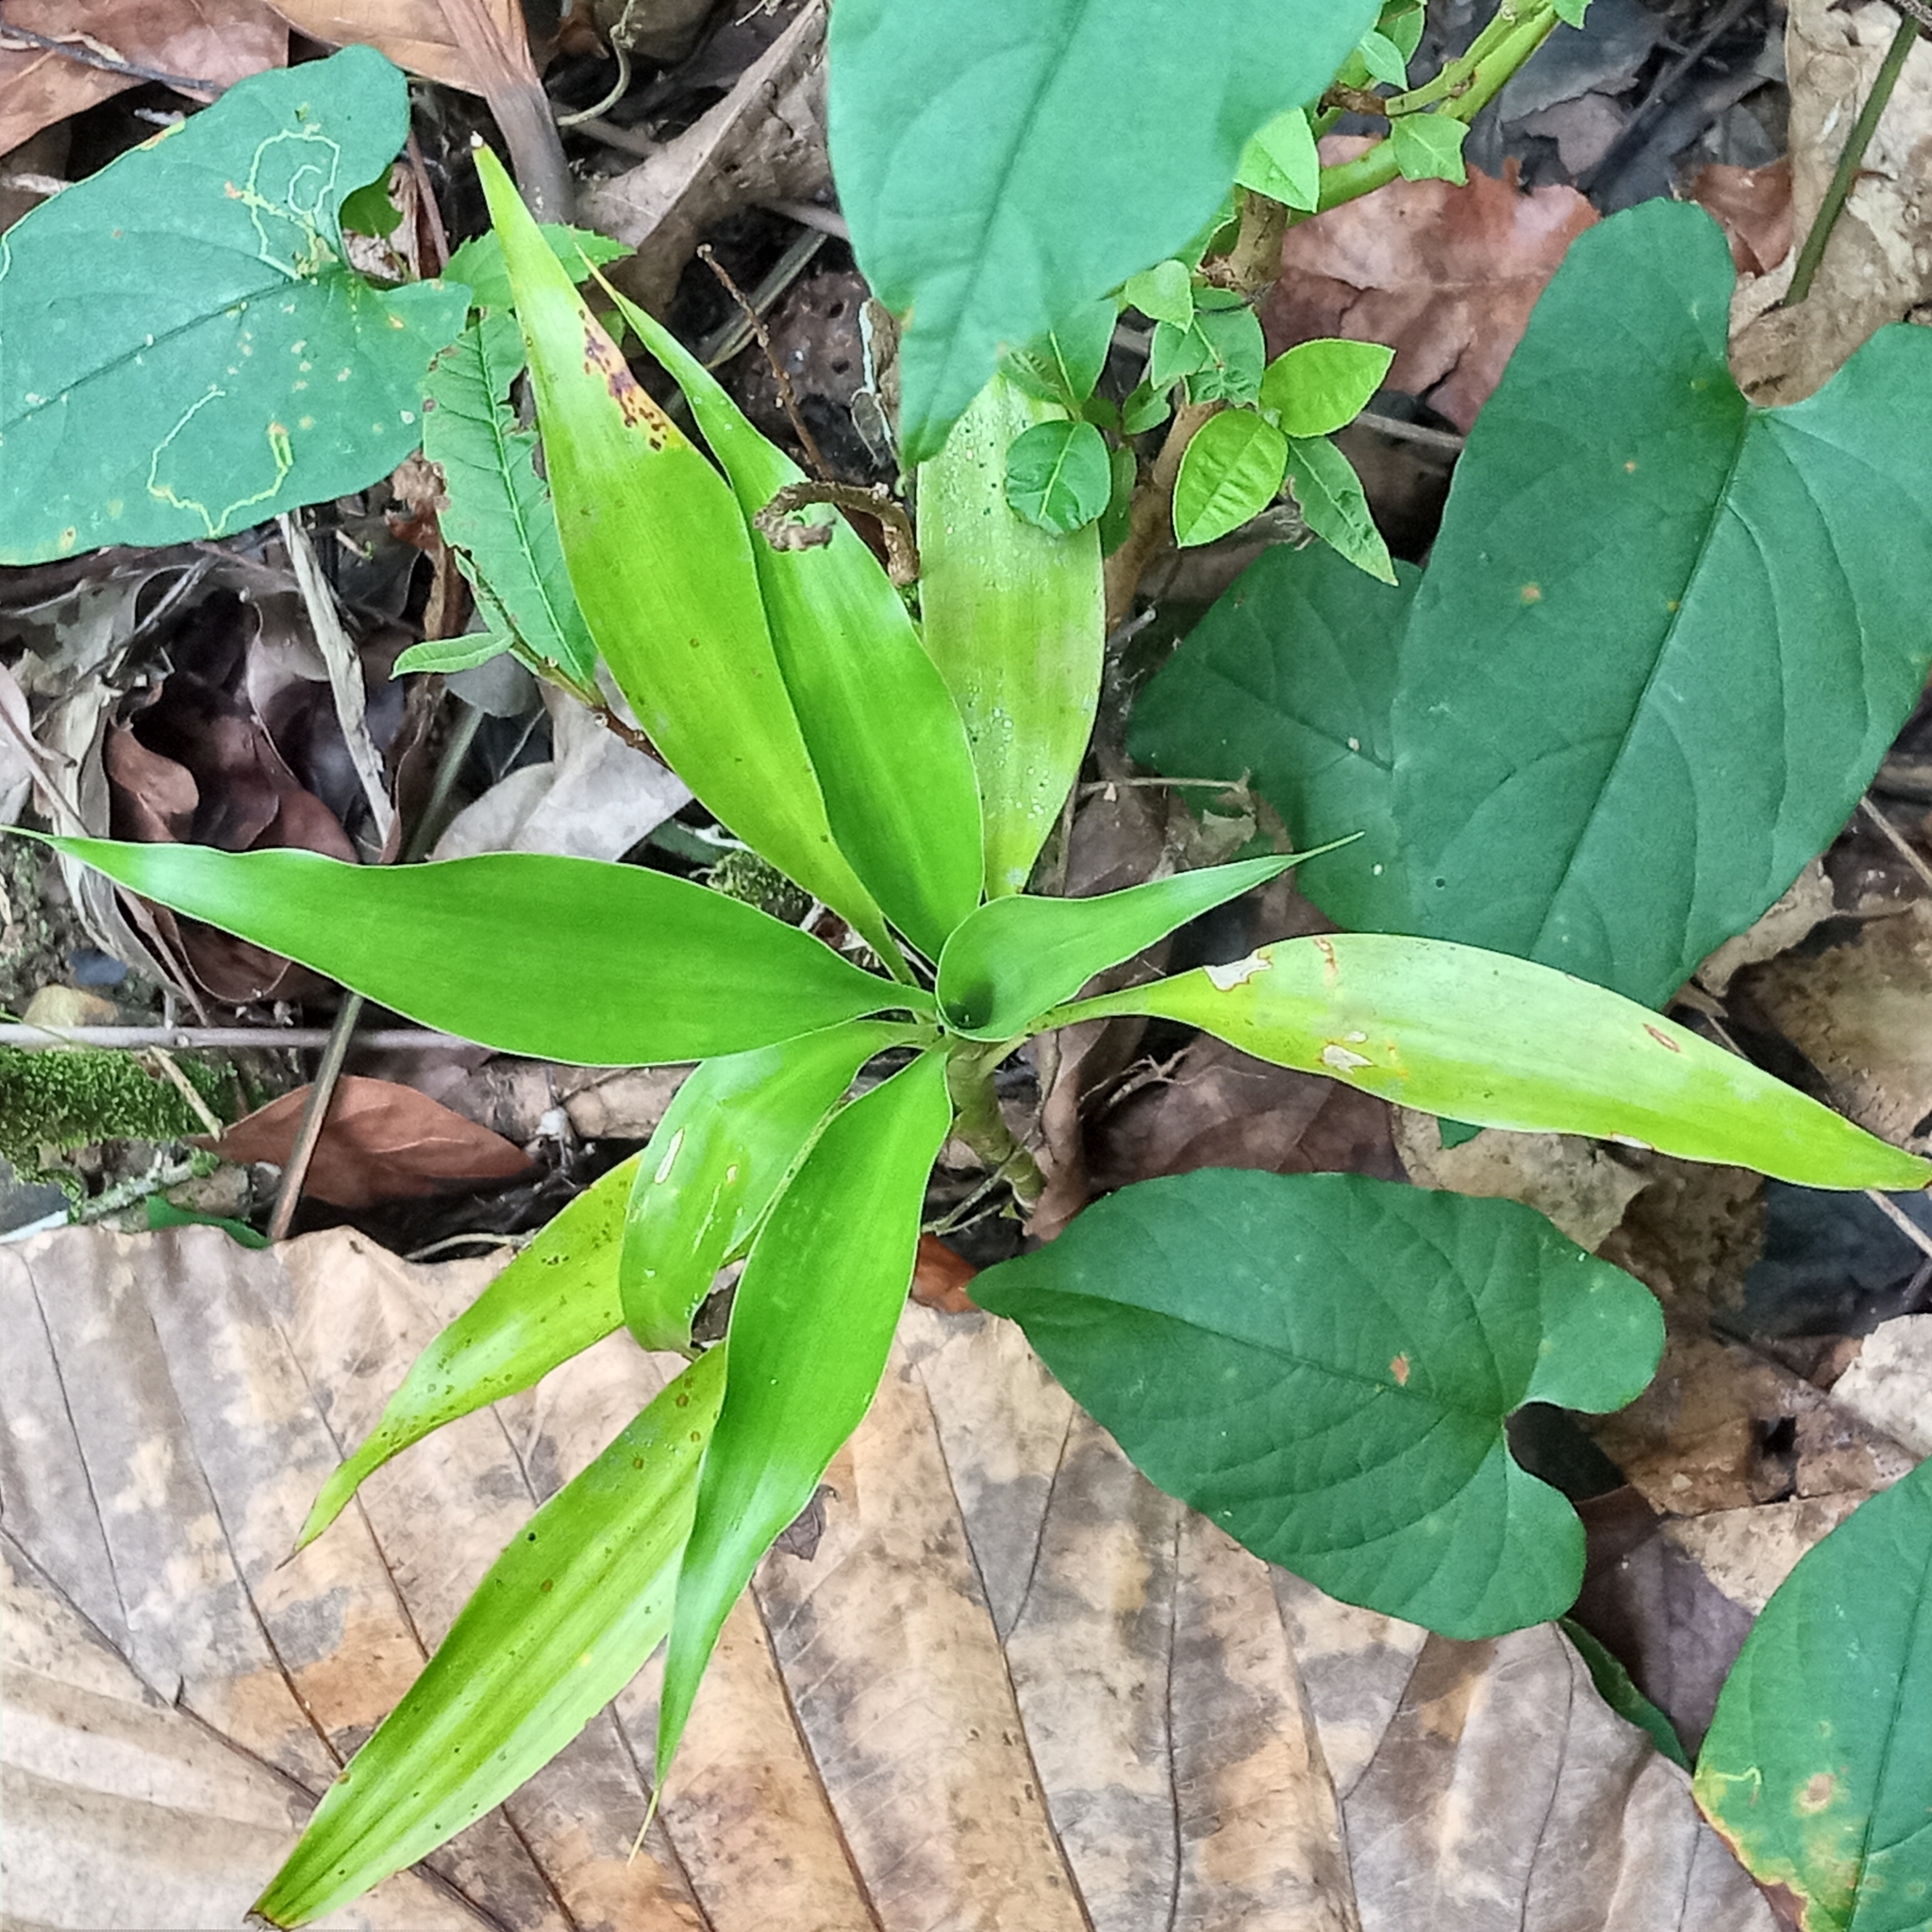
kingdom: Plantae
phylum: Tracheophyta
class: Liliopsida
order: Asparagales
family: Asparagaceae
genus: Dracaena
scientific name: Dracaena sanderiana
